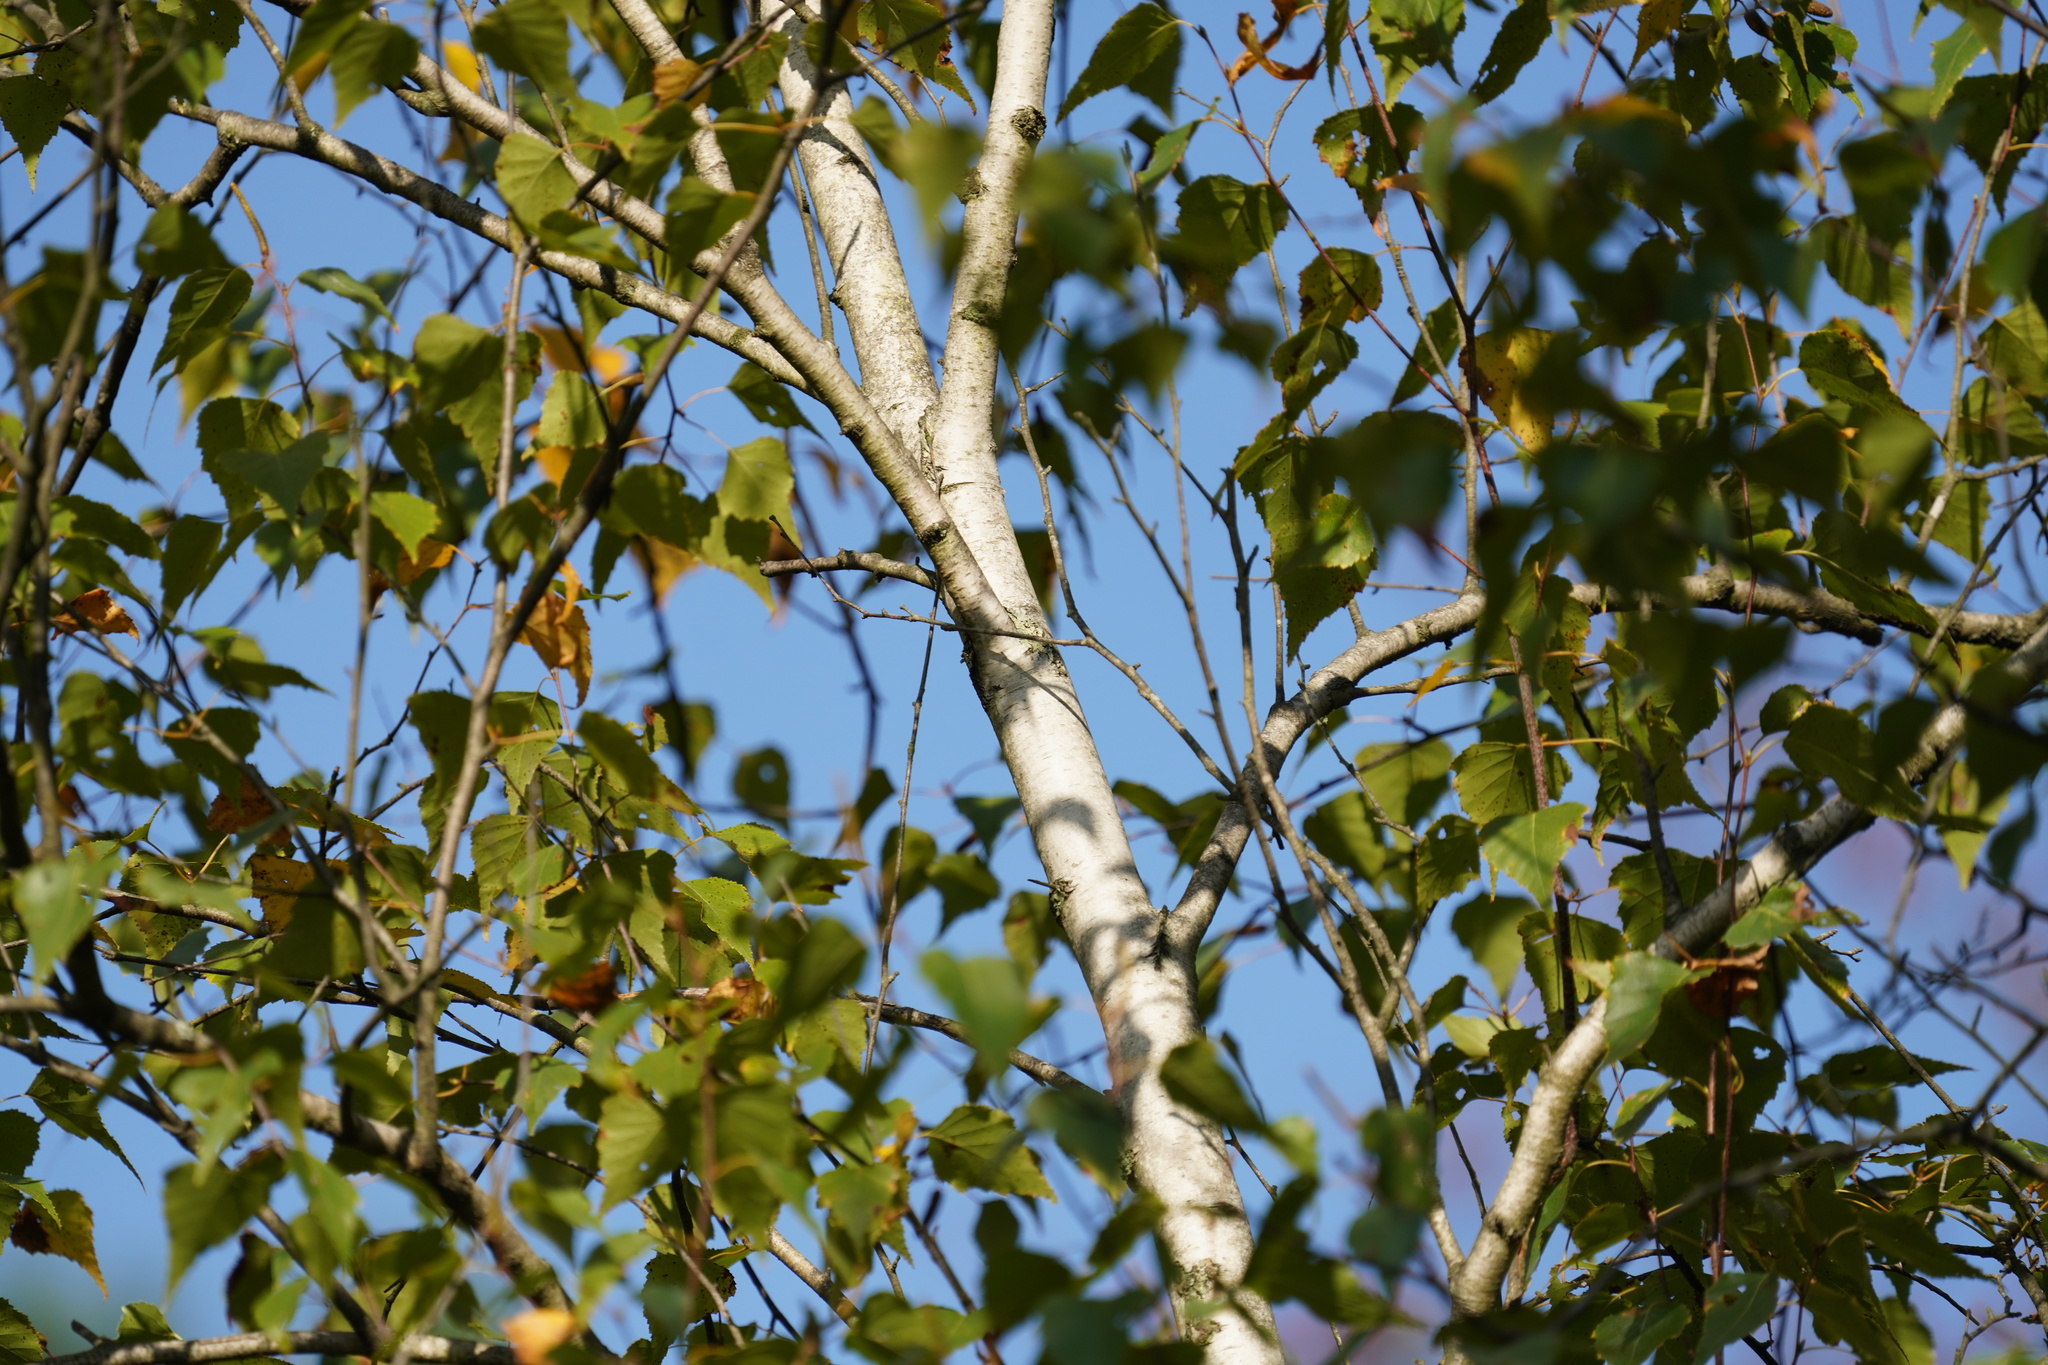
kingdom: Plantae
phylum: Tracheophyta
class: Magnoliopsida
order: Fagales
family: Betulaceae
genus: Betula
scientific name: Betula populifolia
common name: Fire birch
